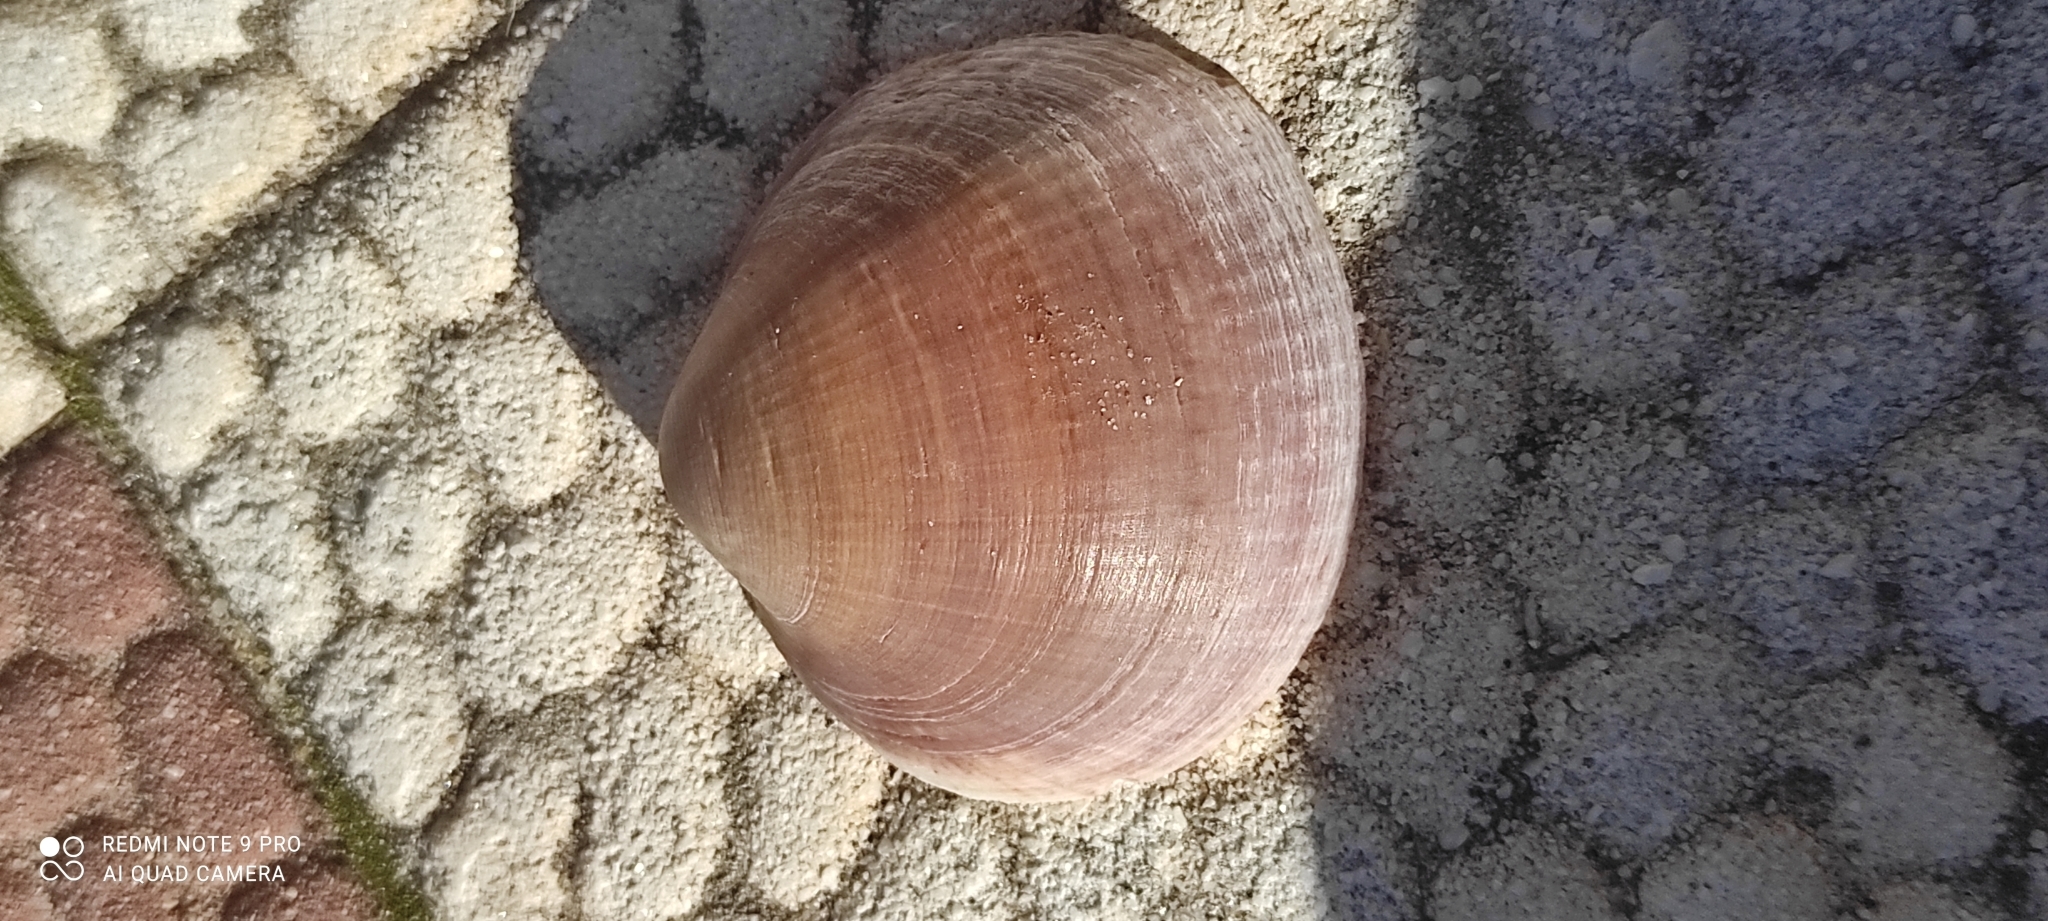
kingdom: Animalia
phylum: Mollusca
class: Bivalvia
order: Arcida
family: Glycymerididae
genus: Glycymeris
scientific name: Glycymeris nummaria
